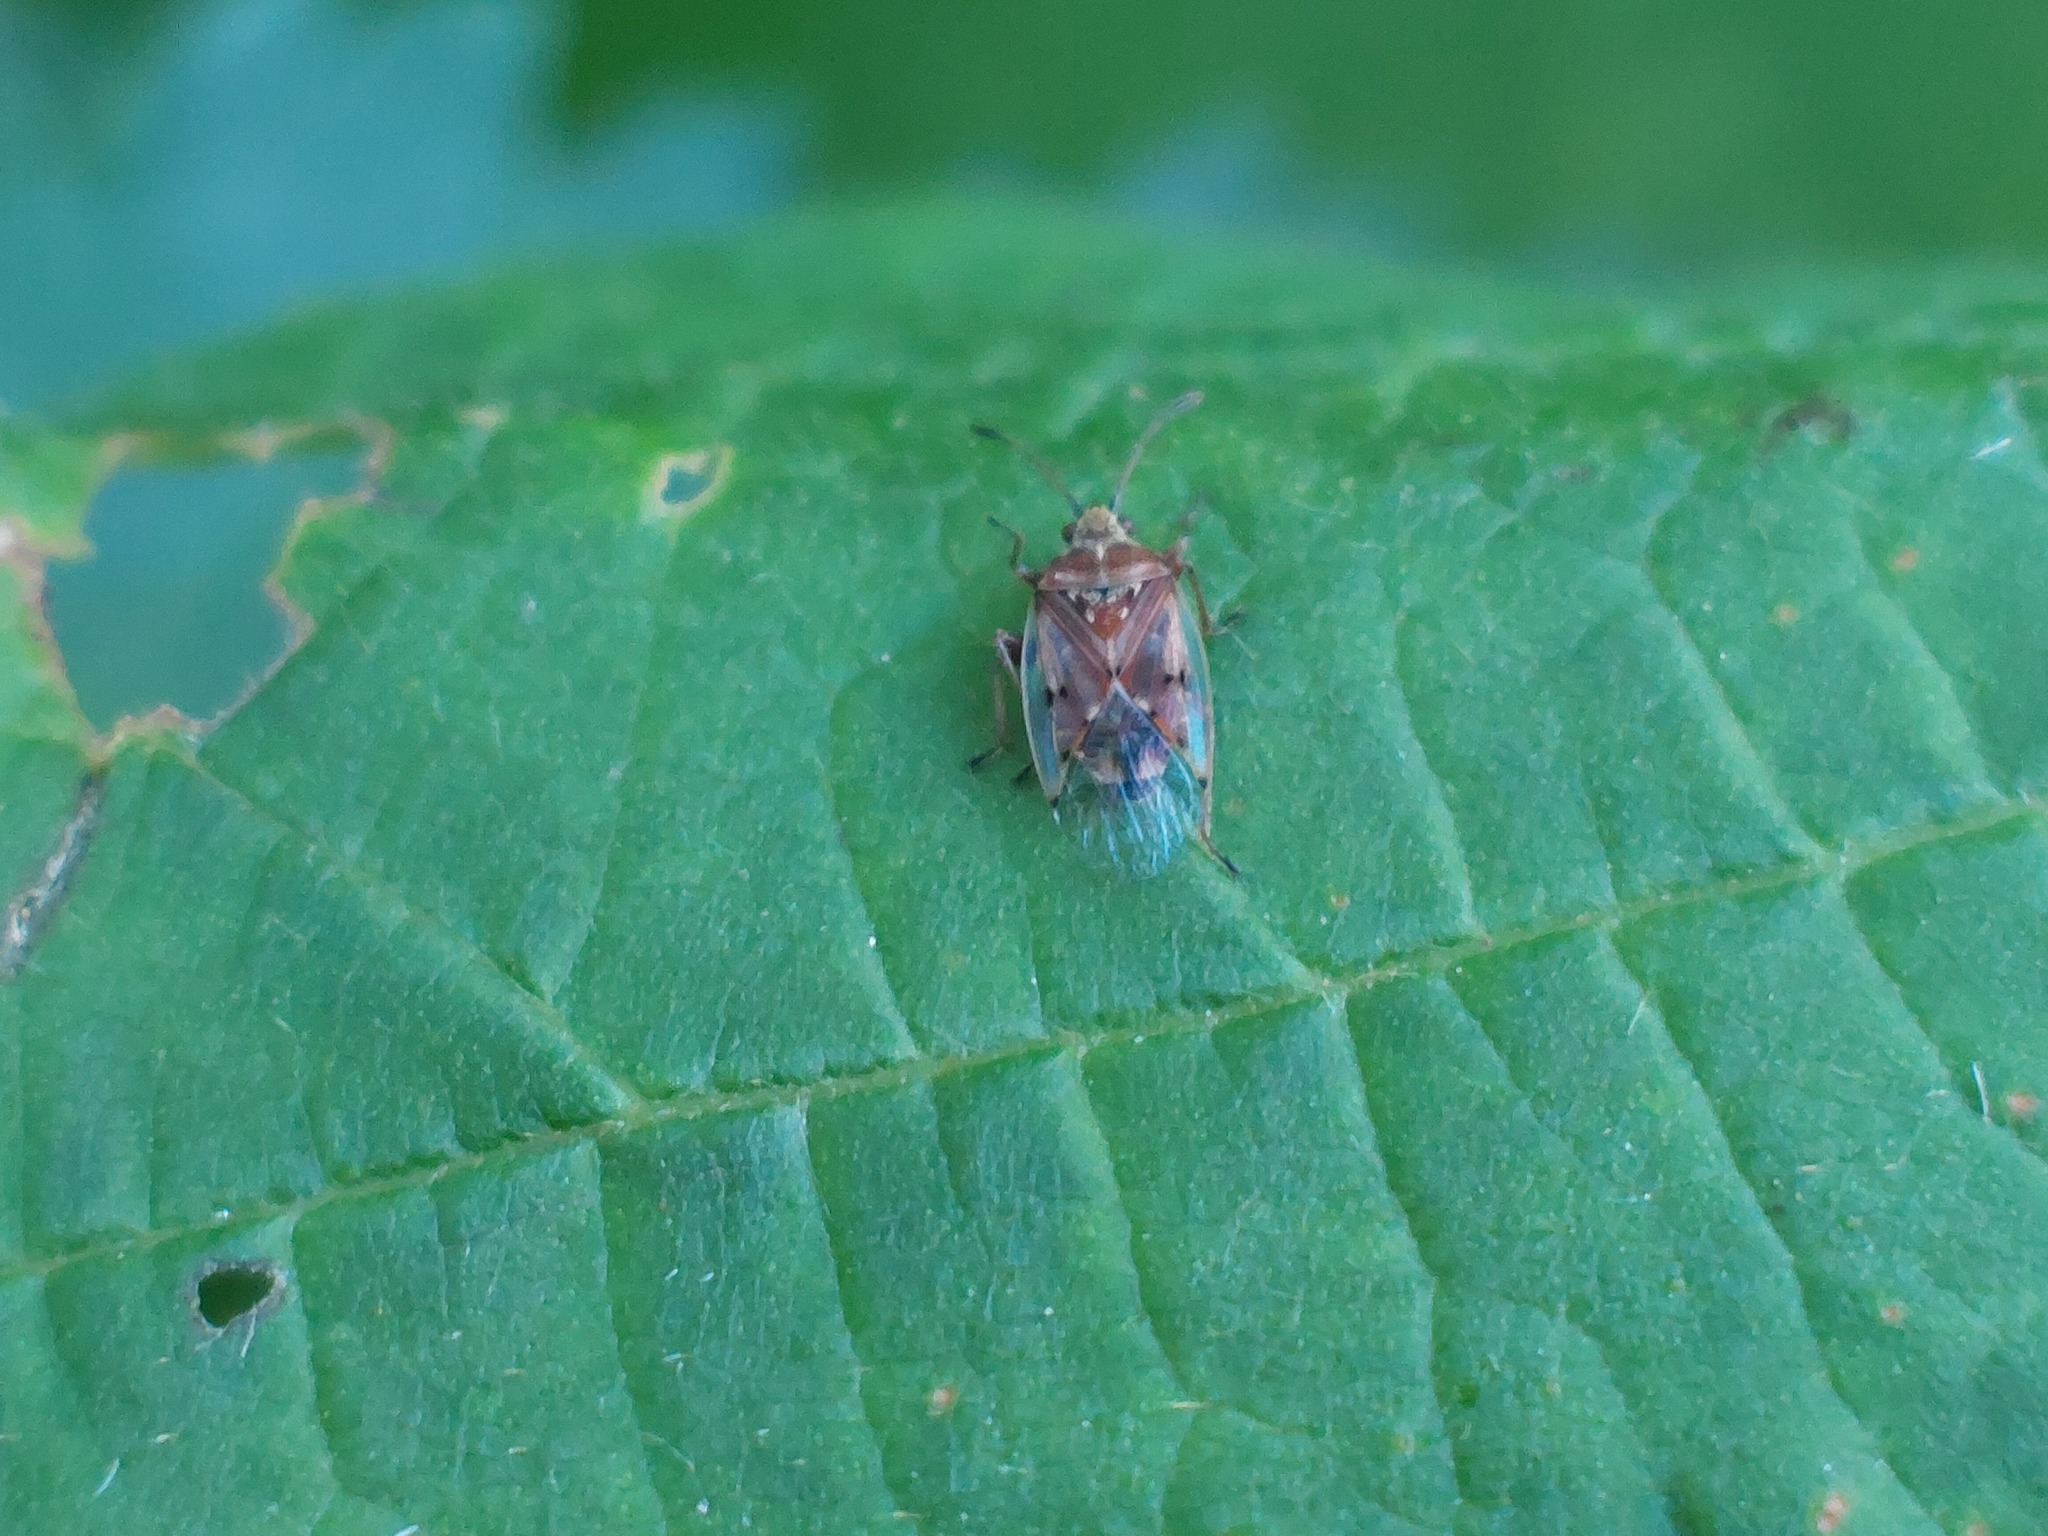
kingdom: Animalia
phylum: Arthropoda
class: Insecta
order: Hemiptera
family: Lygaeidae
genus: Kleidocerys
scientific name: Kleidocerys resedae
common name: Birch catkin bug
